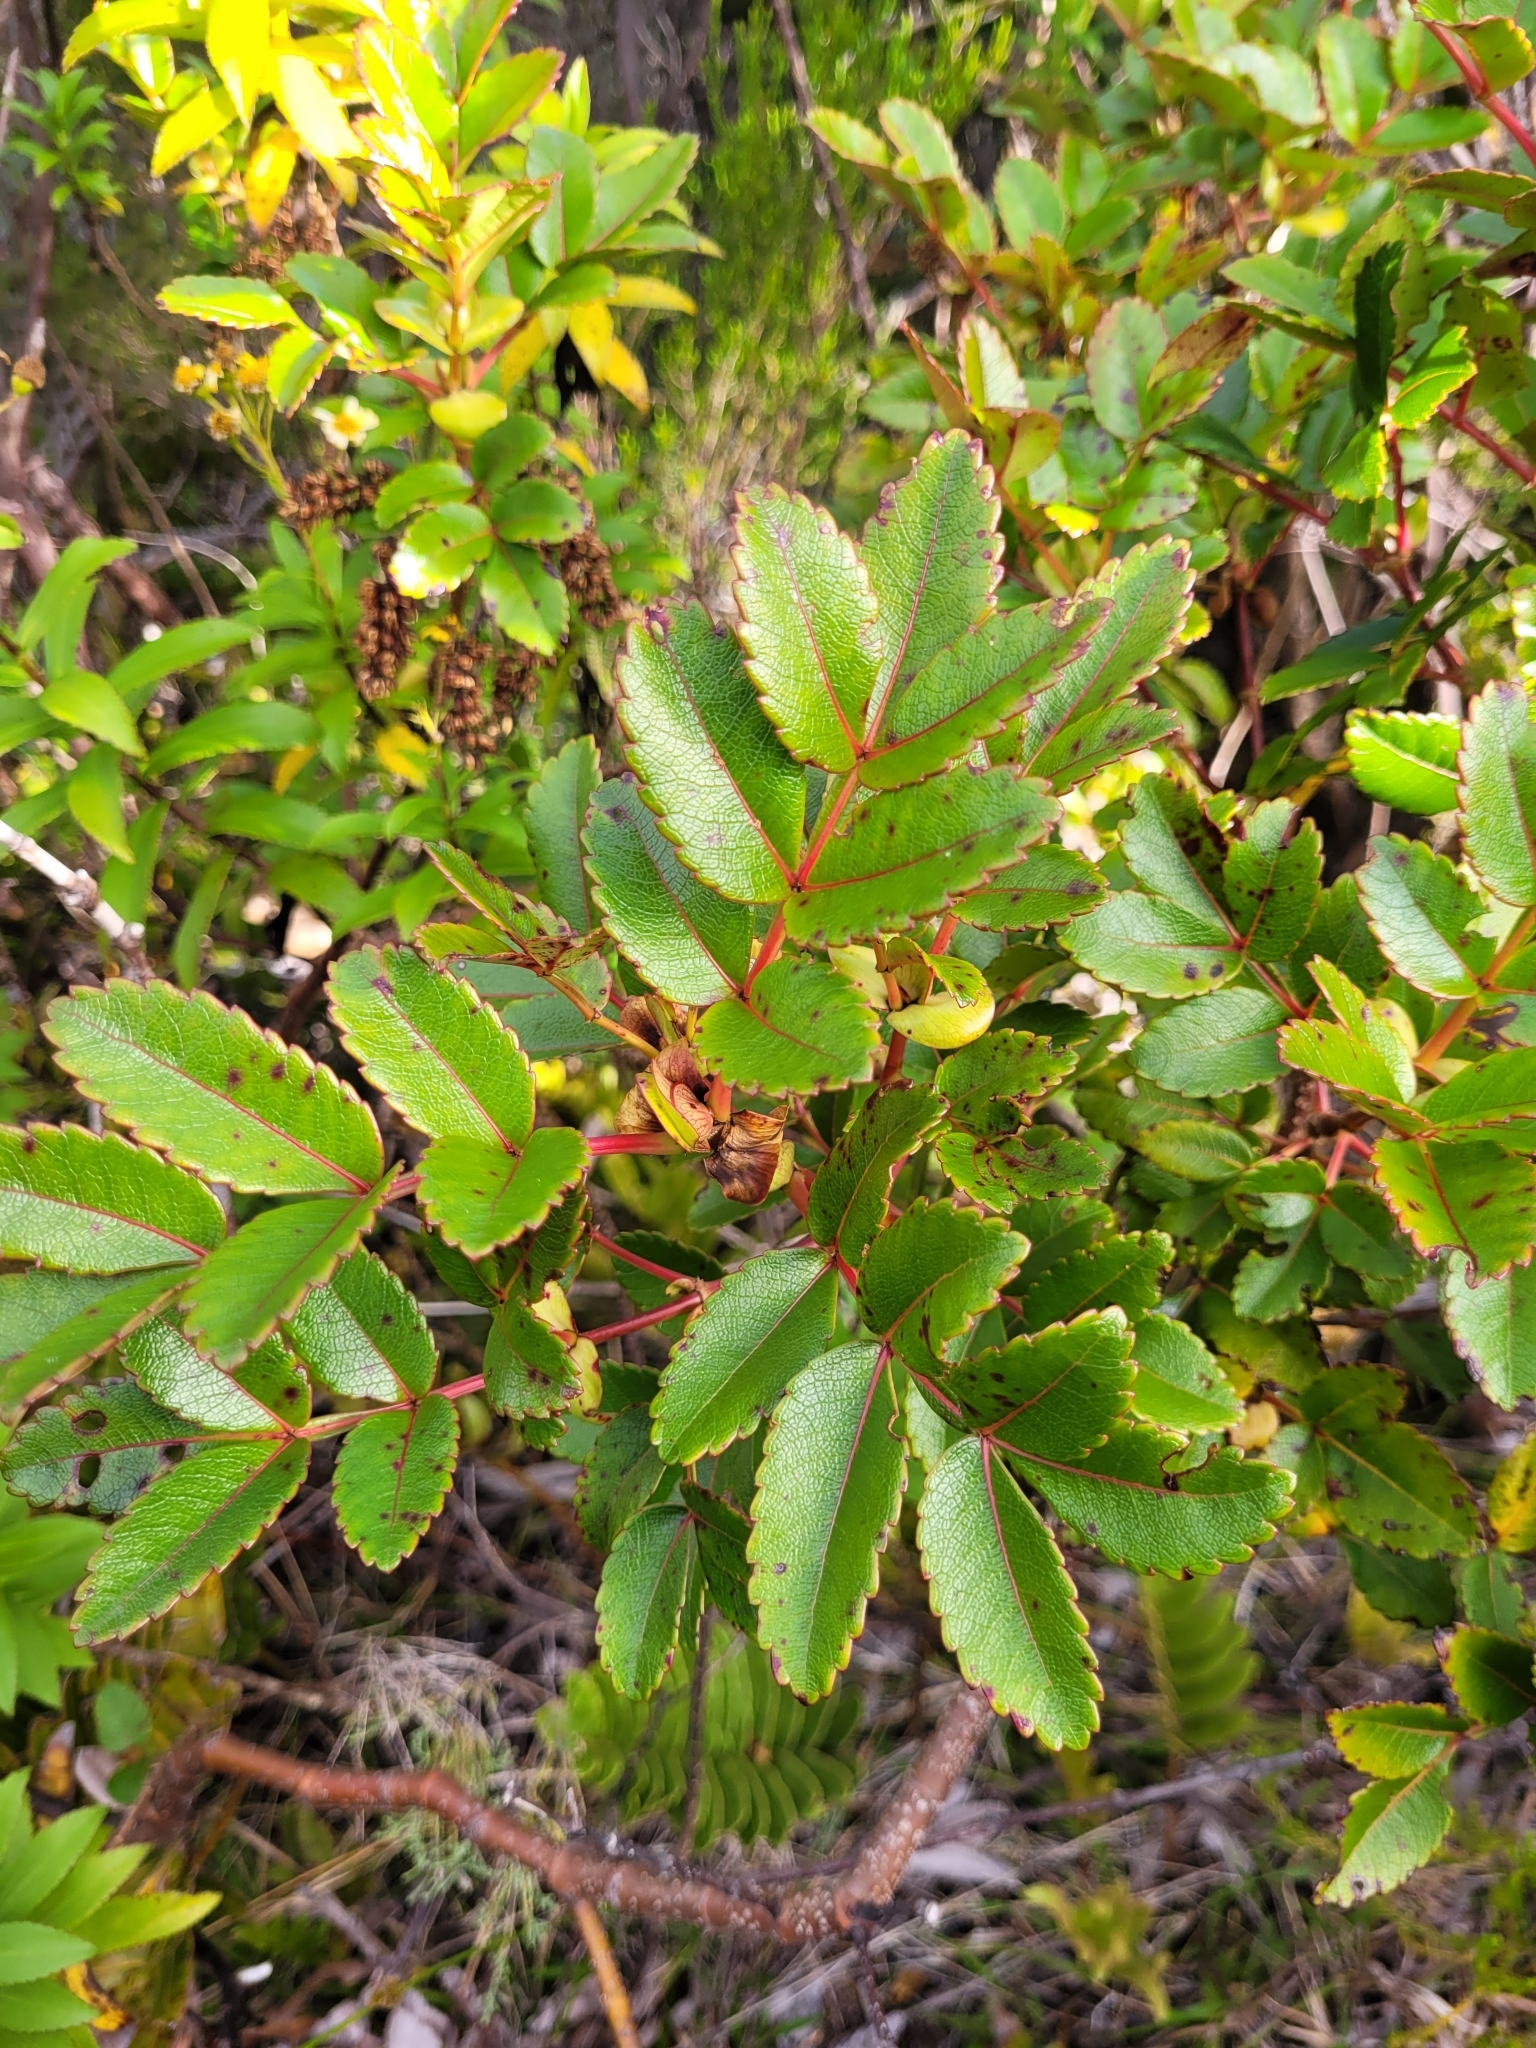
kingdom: Plantae
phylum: Tracheophyta
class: Magnoliopsida
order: Oxalidales
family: Cunoniaceae
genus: Weinmannia
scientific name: Weinmannia mauritiana
